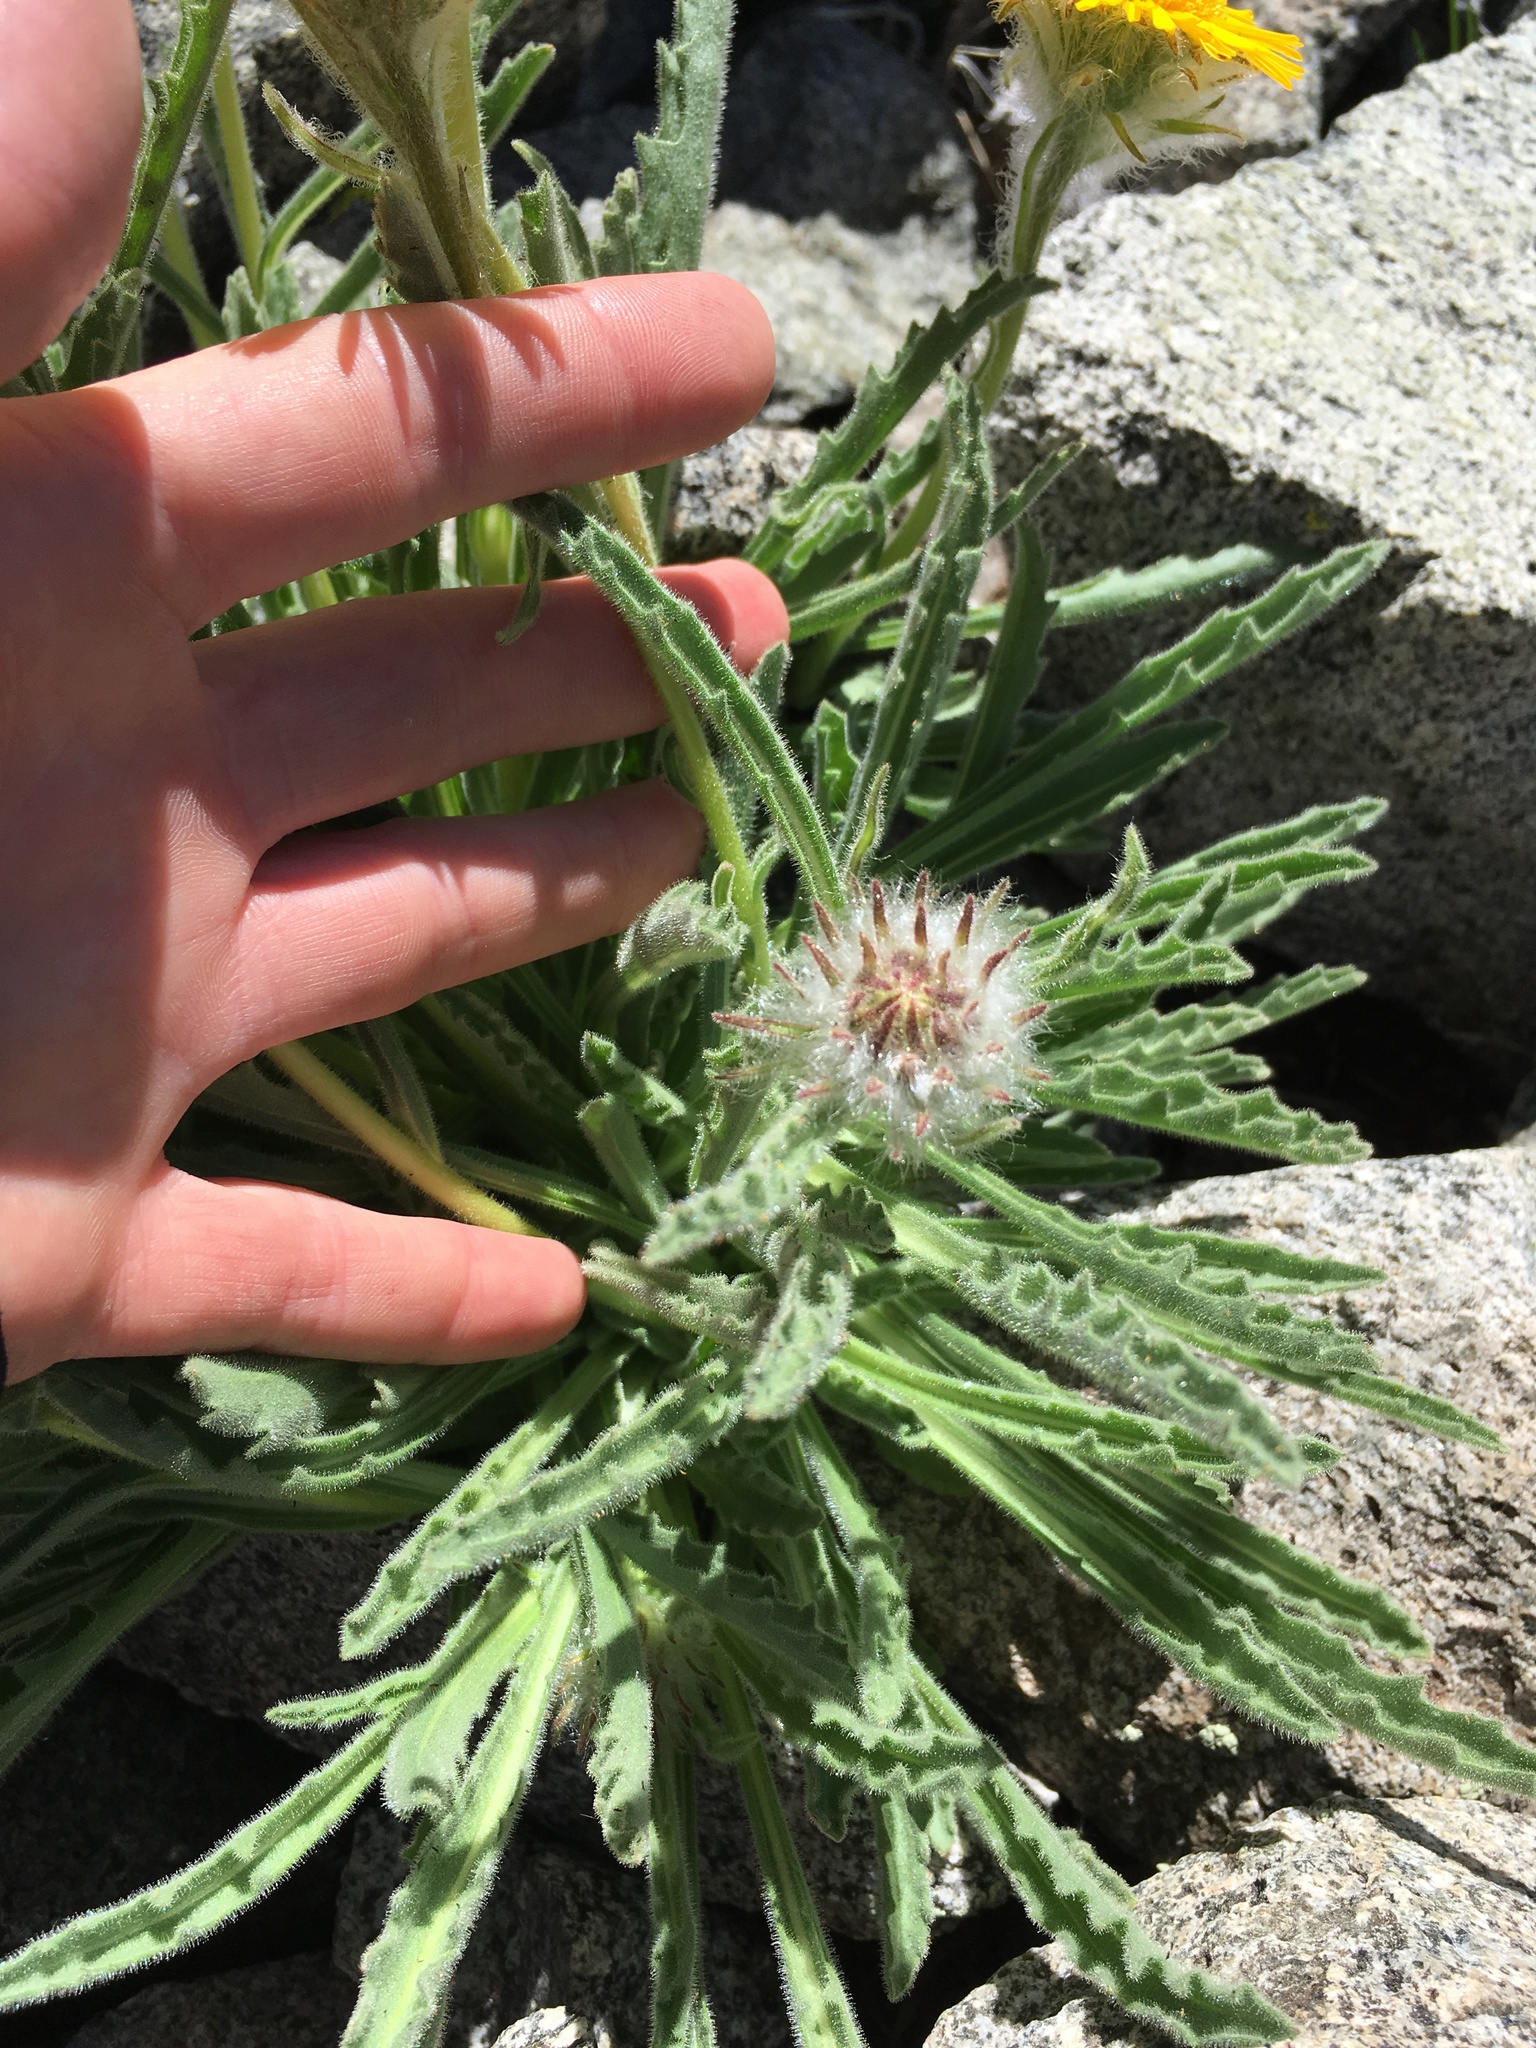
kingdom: Plantae
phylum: Tracheophyta
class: Magnoliopsida
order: Asterales
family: Asteraceae
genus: Hulsea
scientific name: Hulsea algida
